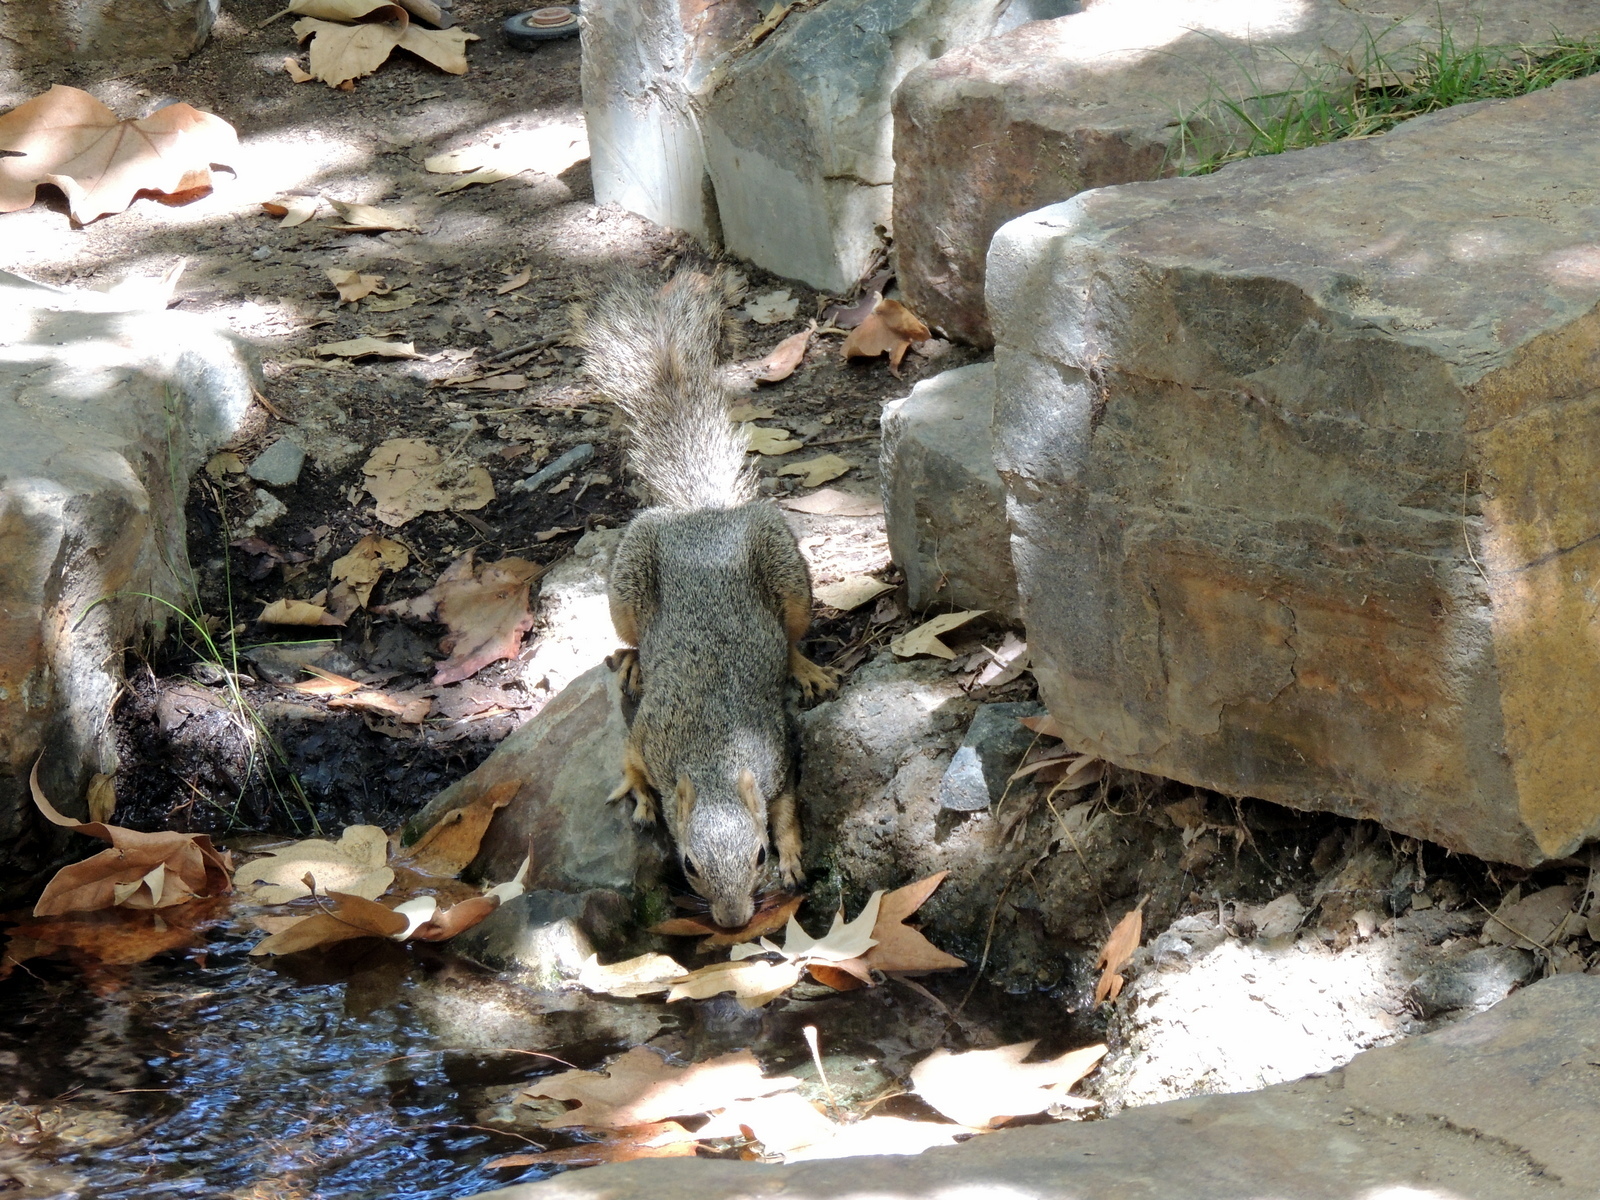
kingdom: Animalia
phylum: Chordata
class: Mammalia
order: Rodentia
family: Sciuridae
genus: Sciurus
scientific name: Sciurus niger
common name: Fox squirrel
